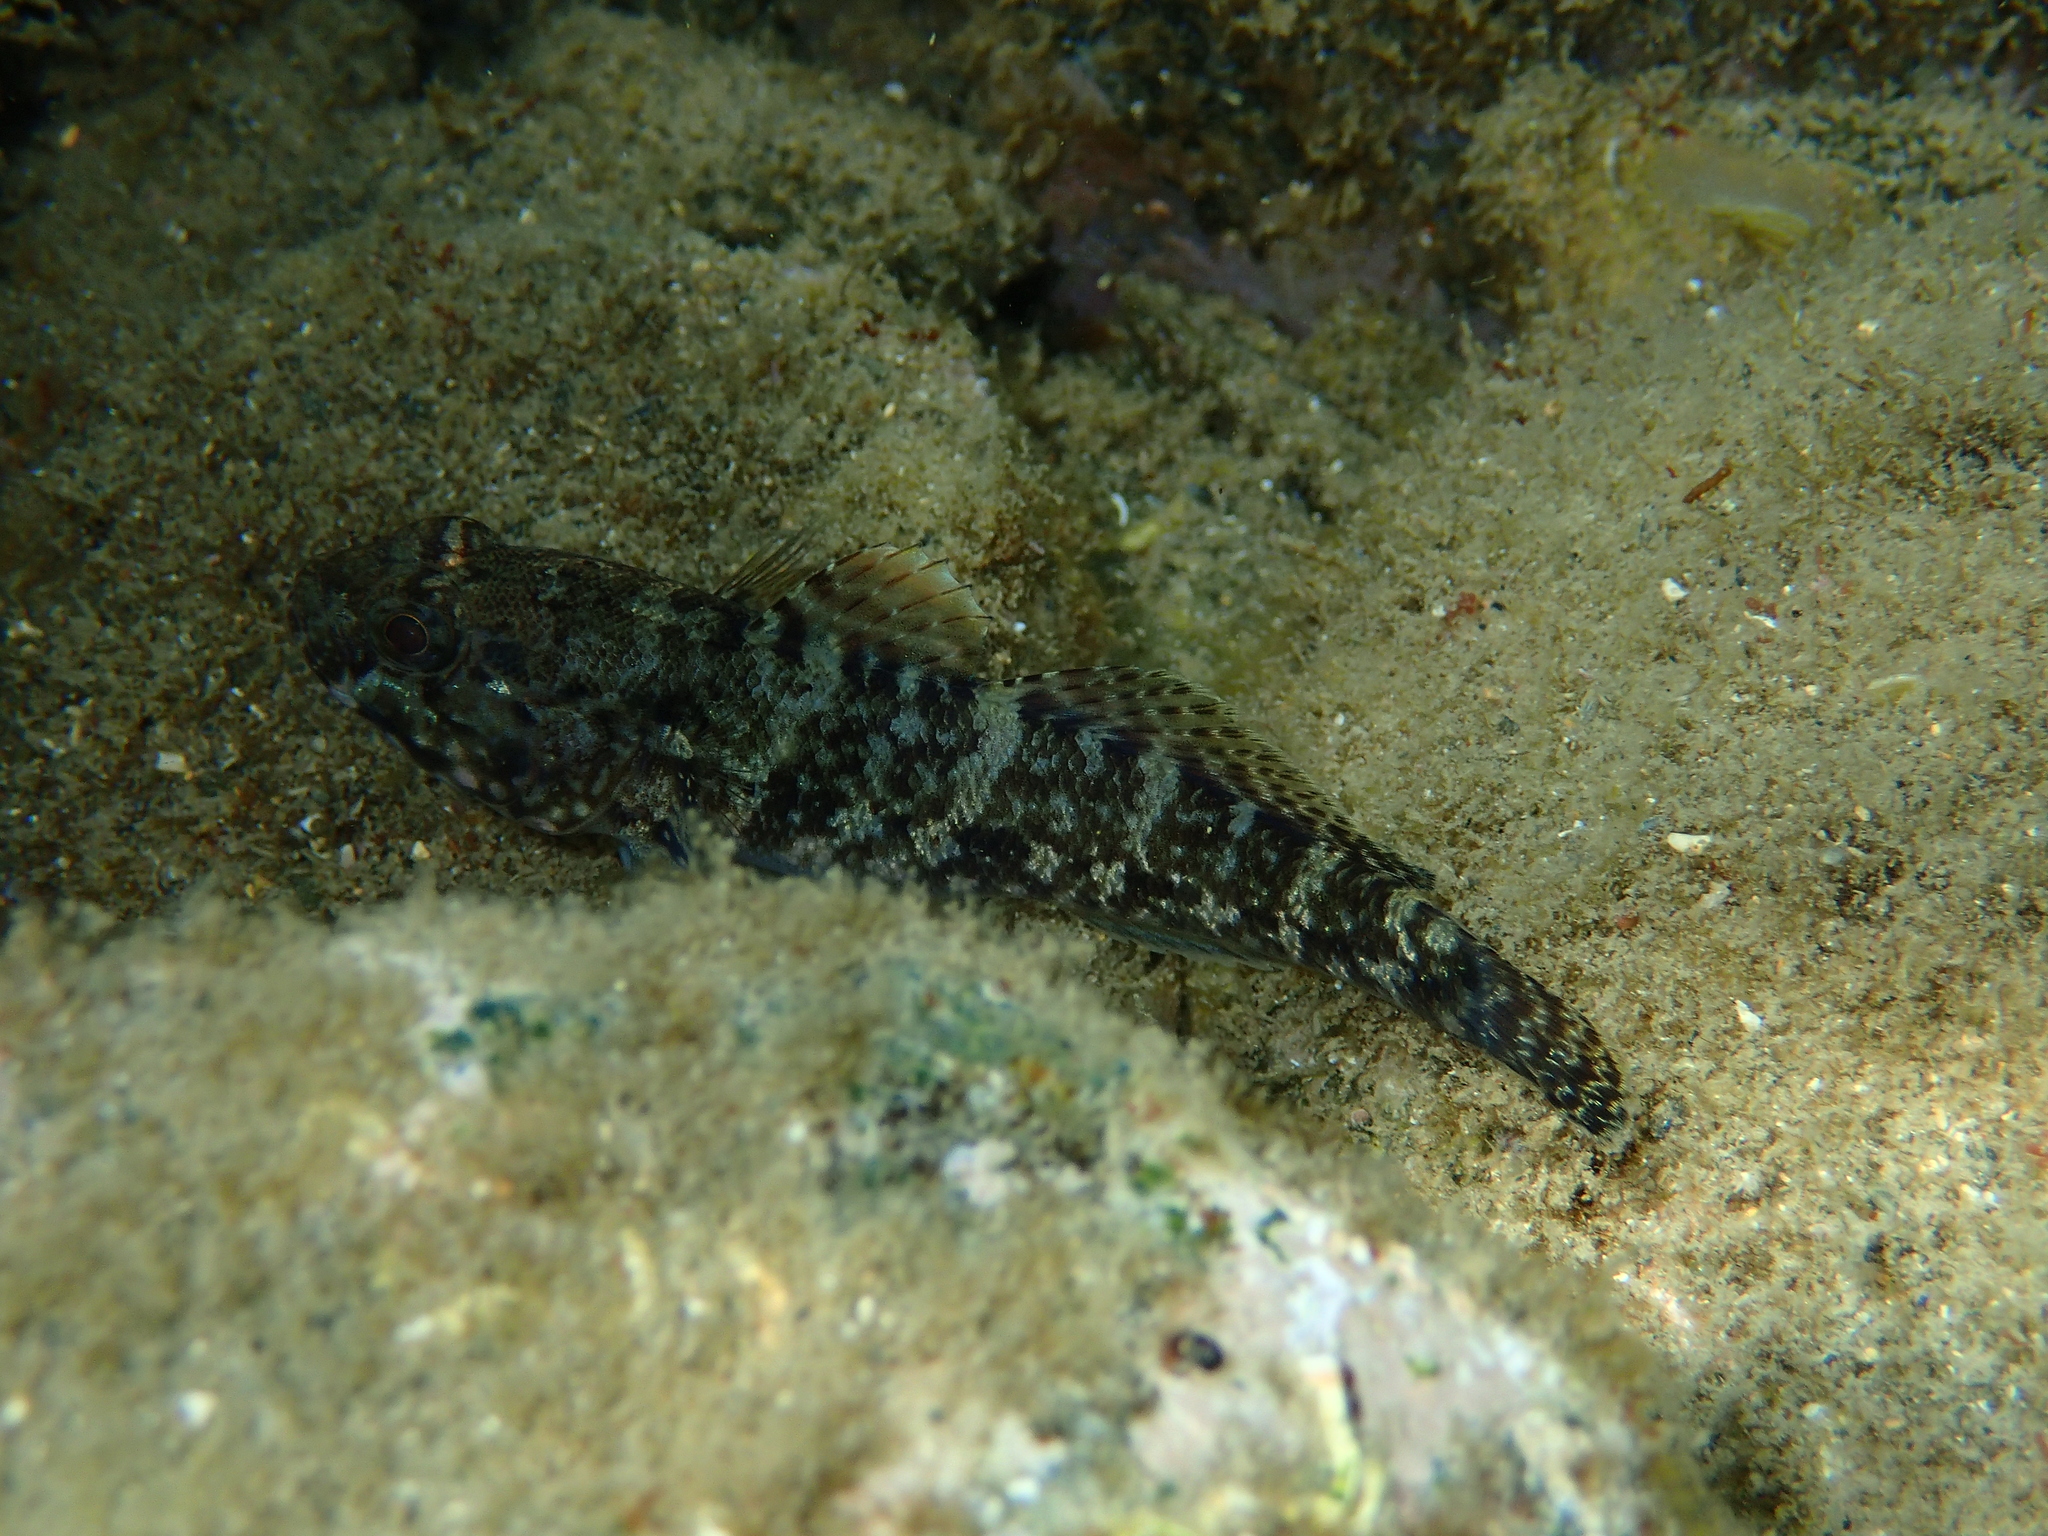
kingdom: Animalia
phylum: Chordata
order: Perciformes
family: Gobiidae
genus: Gobius
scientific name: Gobius paganellus
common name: Rock goby
